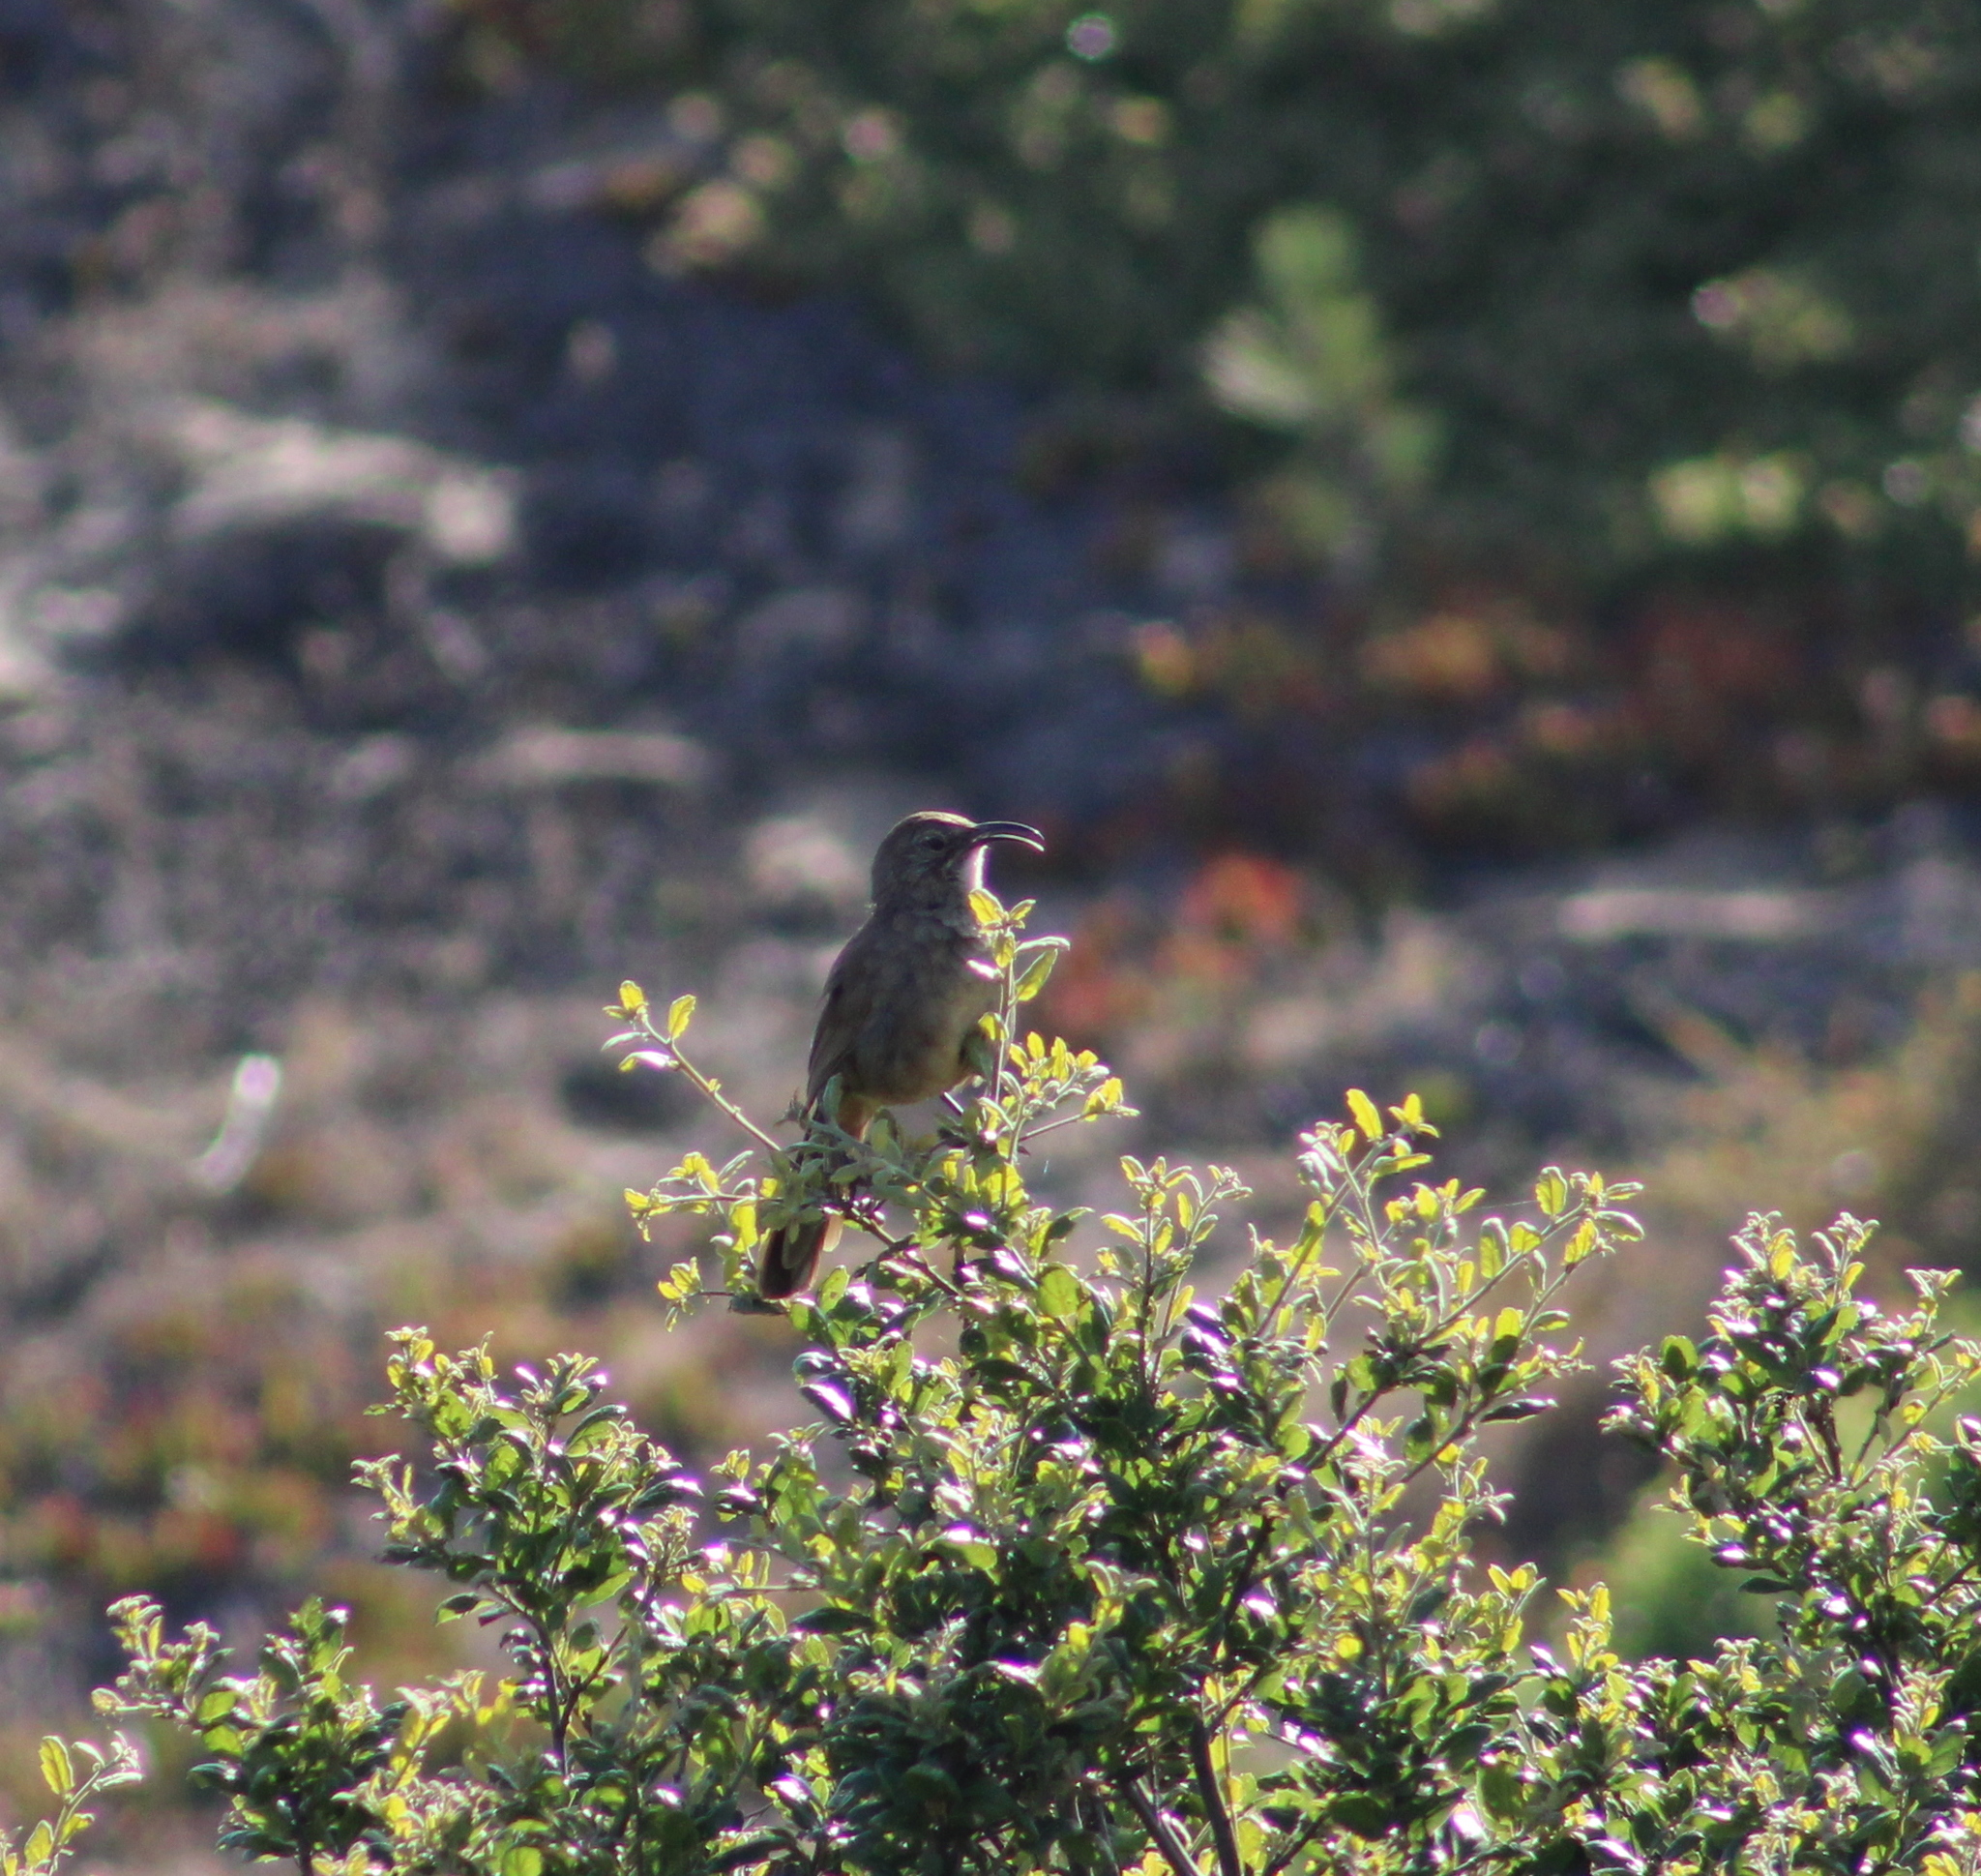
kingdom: Animalia
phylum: Chordata
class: Aves
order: Passeriformes
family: Mimidae
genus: Toxostoma
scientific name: Toxostoma redivivum
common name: California thrasher
